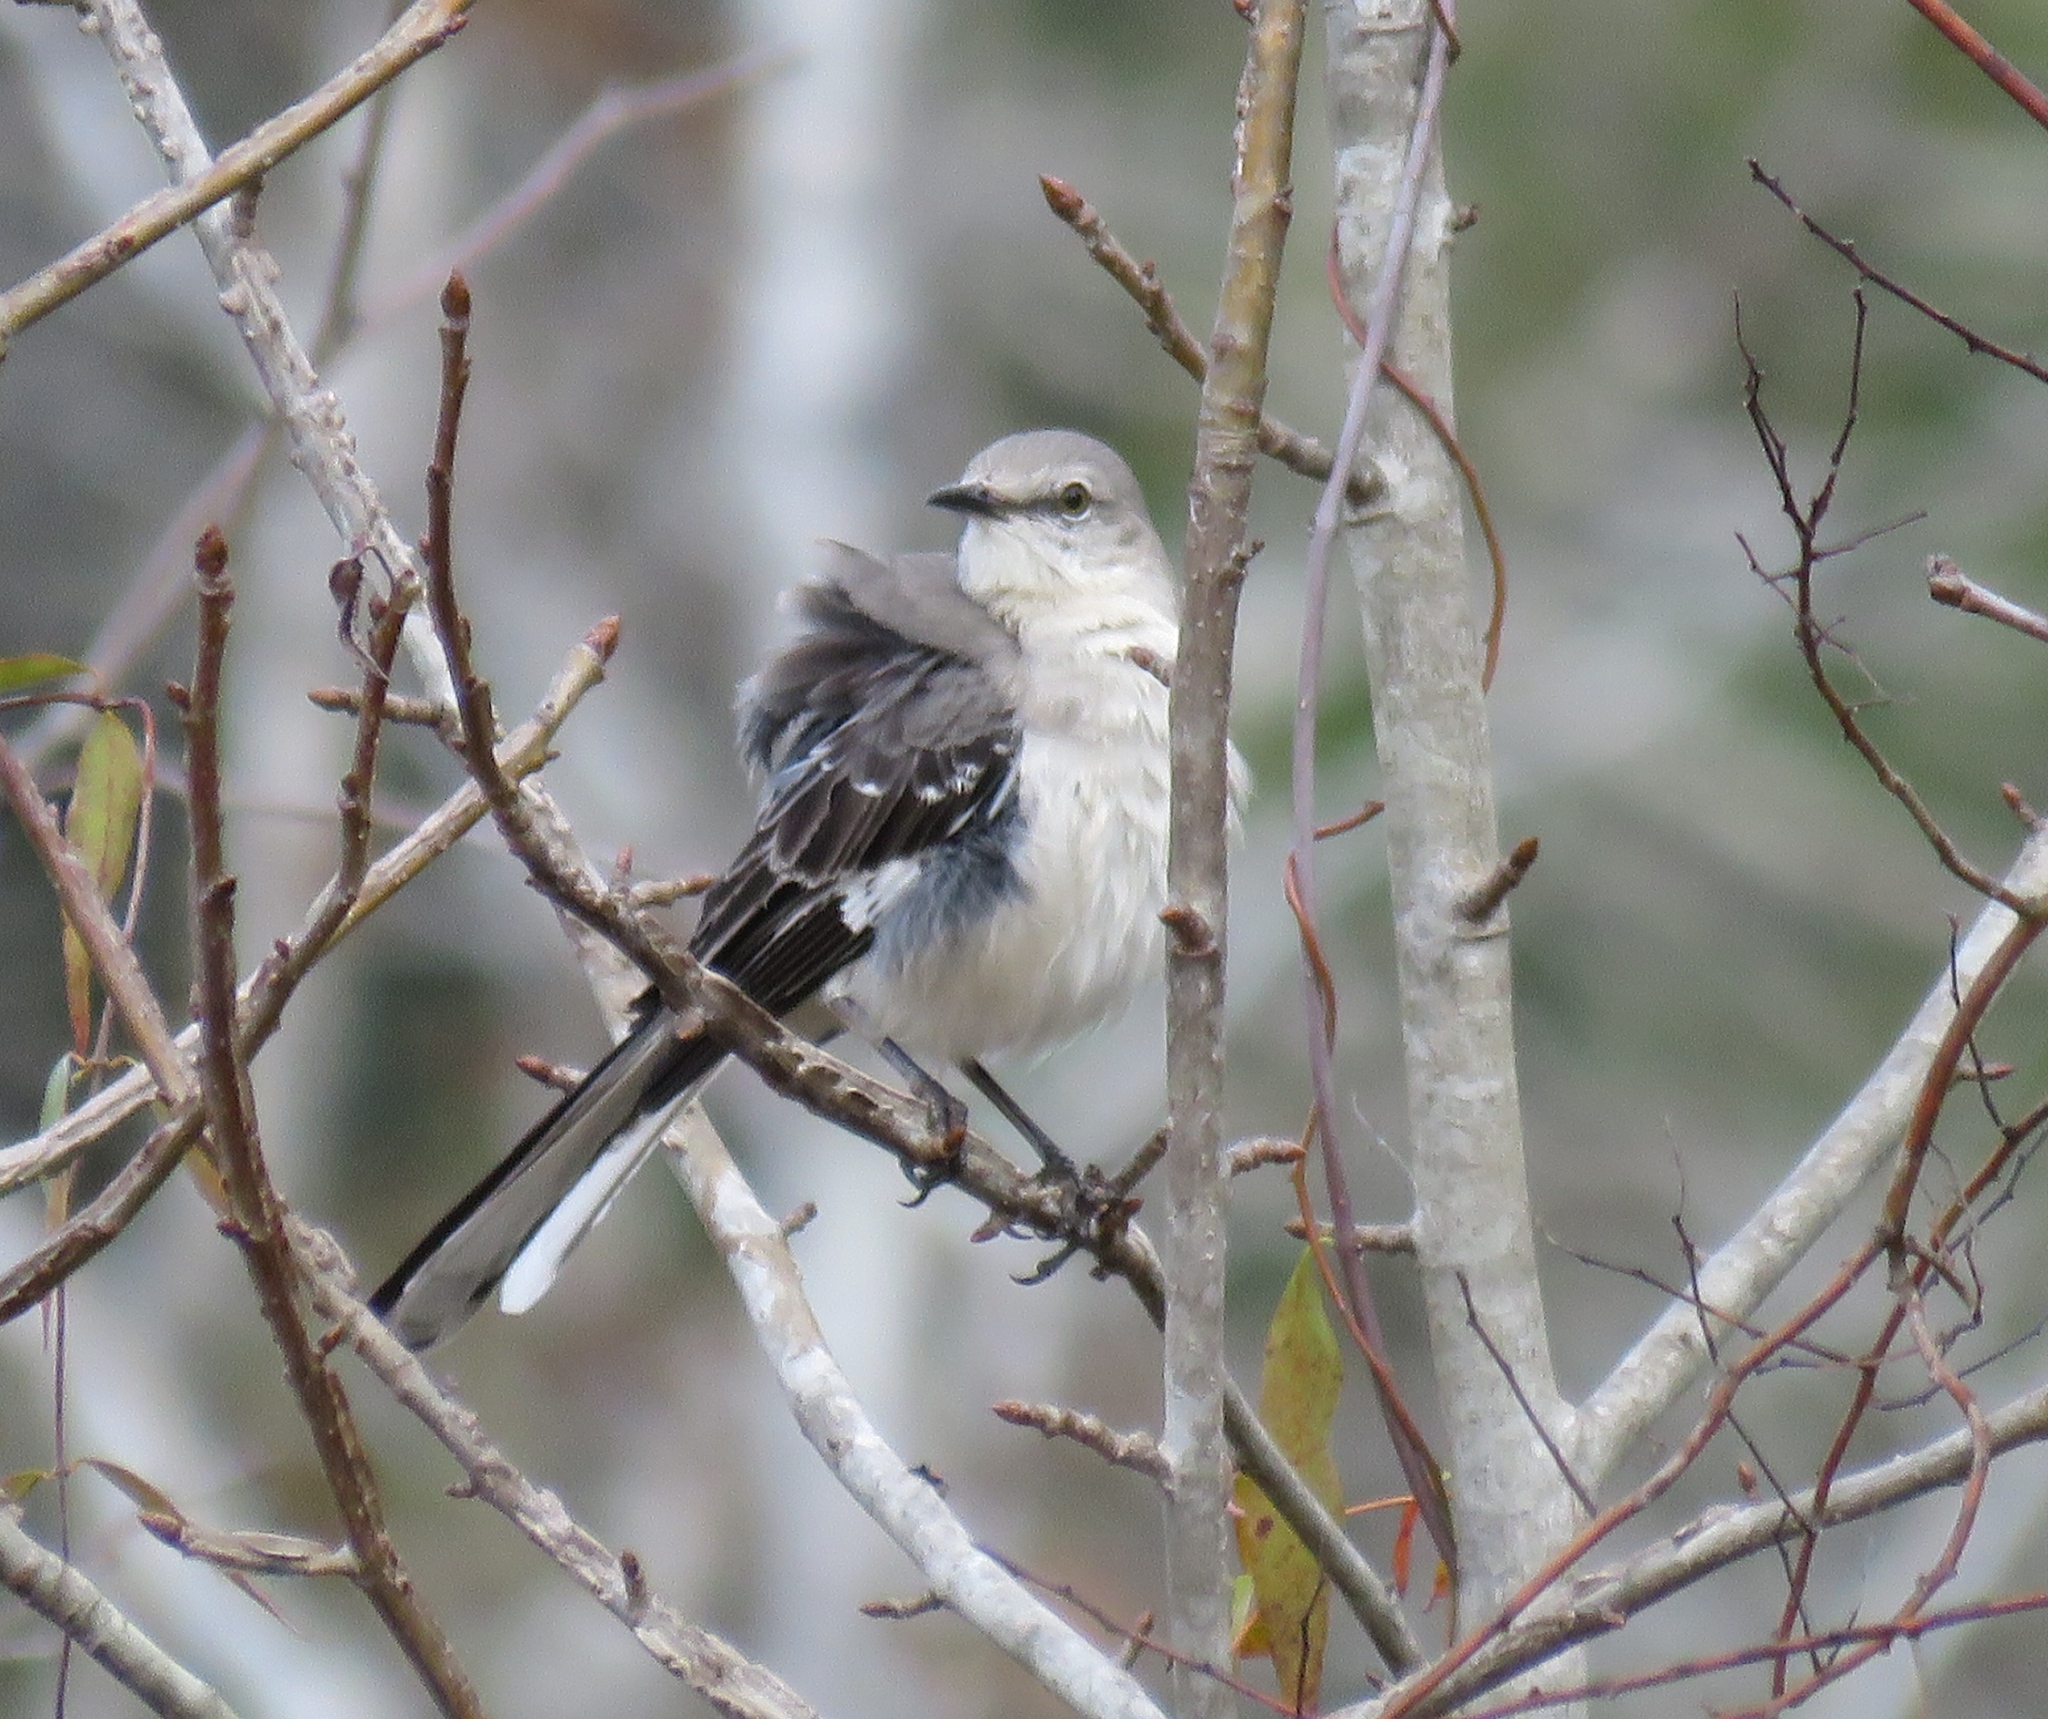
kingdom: Animalia
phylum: Chordata
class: Aves
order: Passeriformes
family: Mimidae
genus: Mimus
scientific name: Mimus polyglottos
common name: Northern mockingbird
